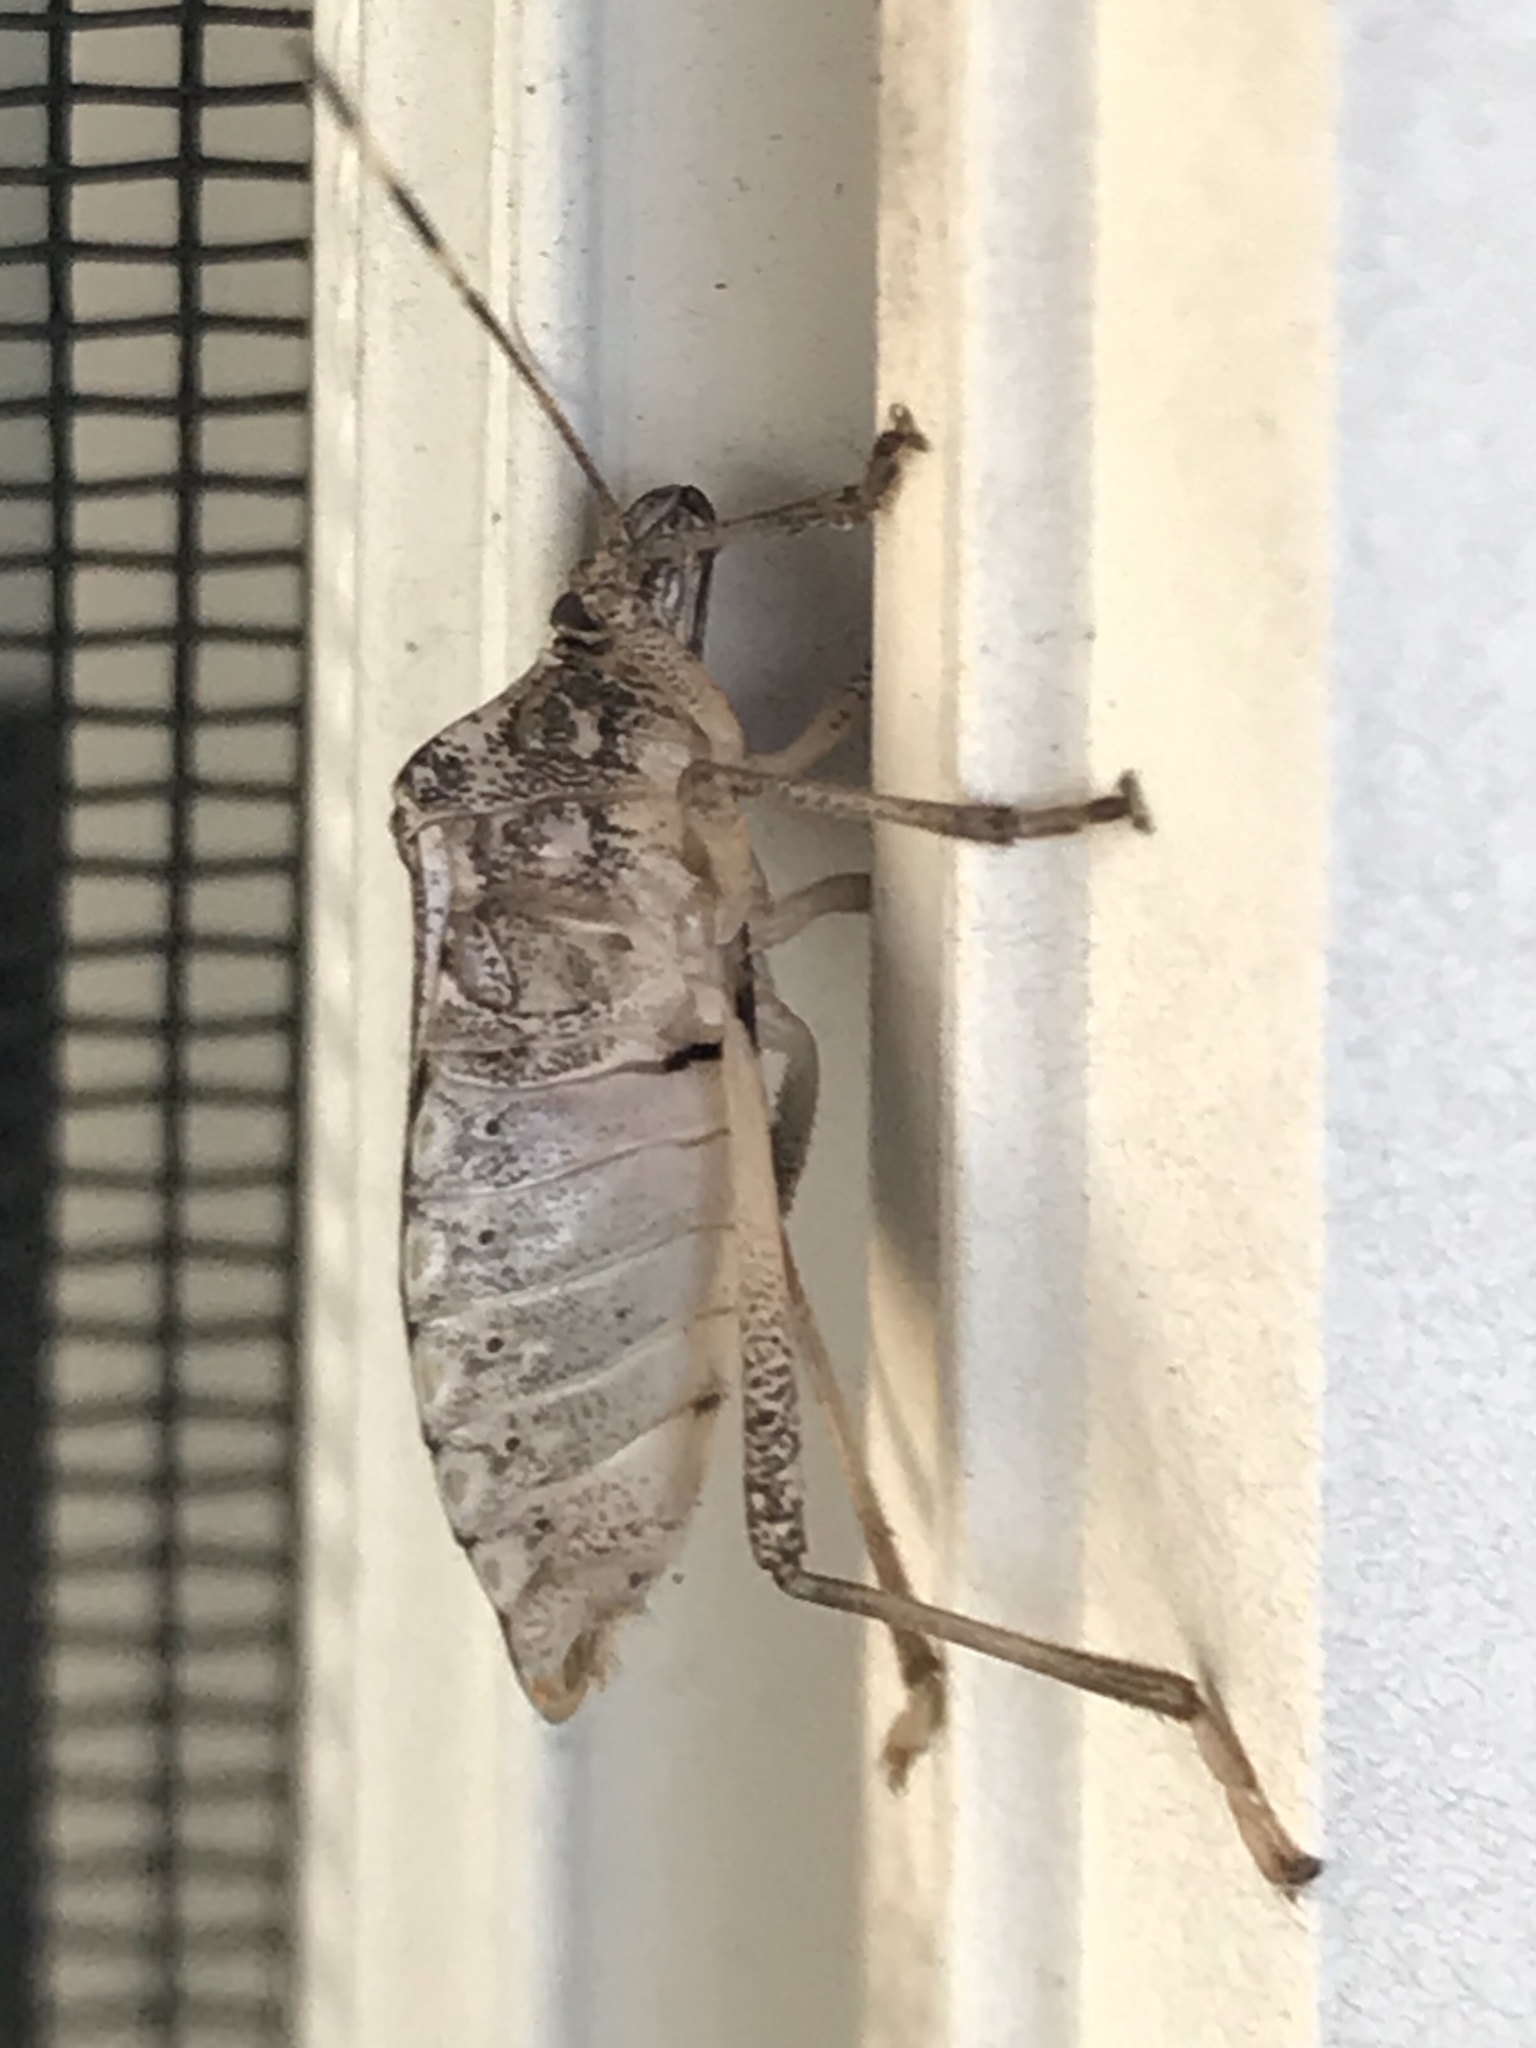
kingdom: Animalia
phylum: Arthropoda
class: Insecta
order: Hemiptera
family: Pentatomidae
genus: Halyomorpha
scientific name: Halyomorpha halys
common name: Brown marmorated stink bug
